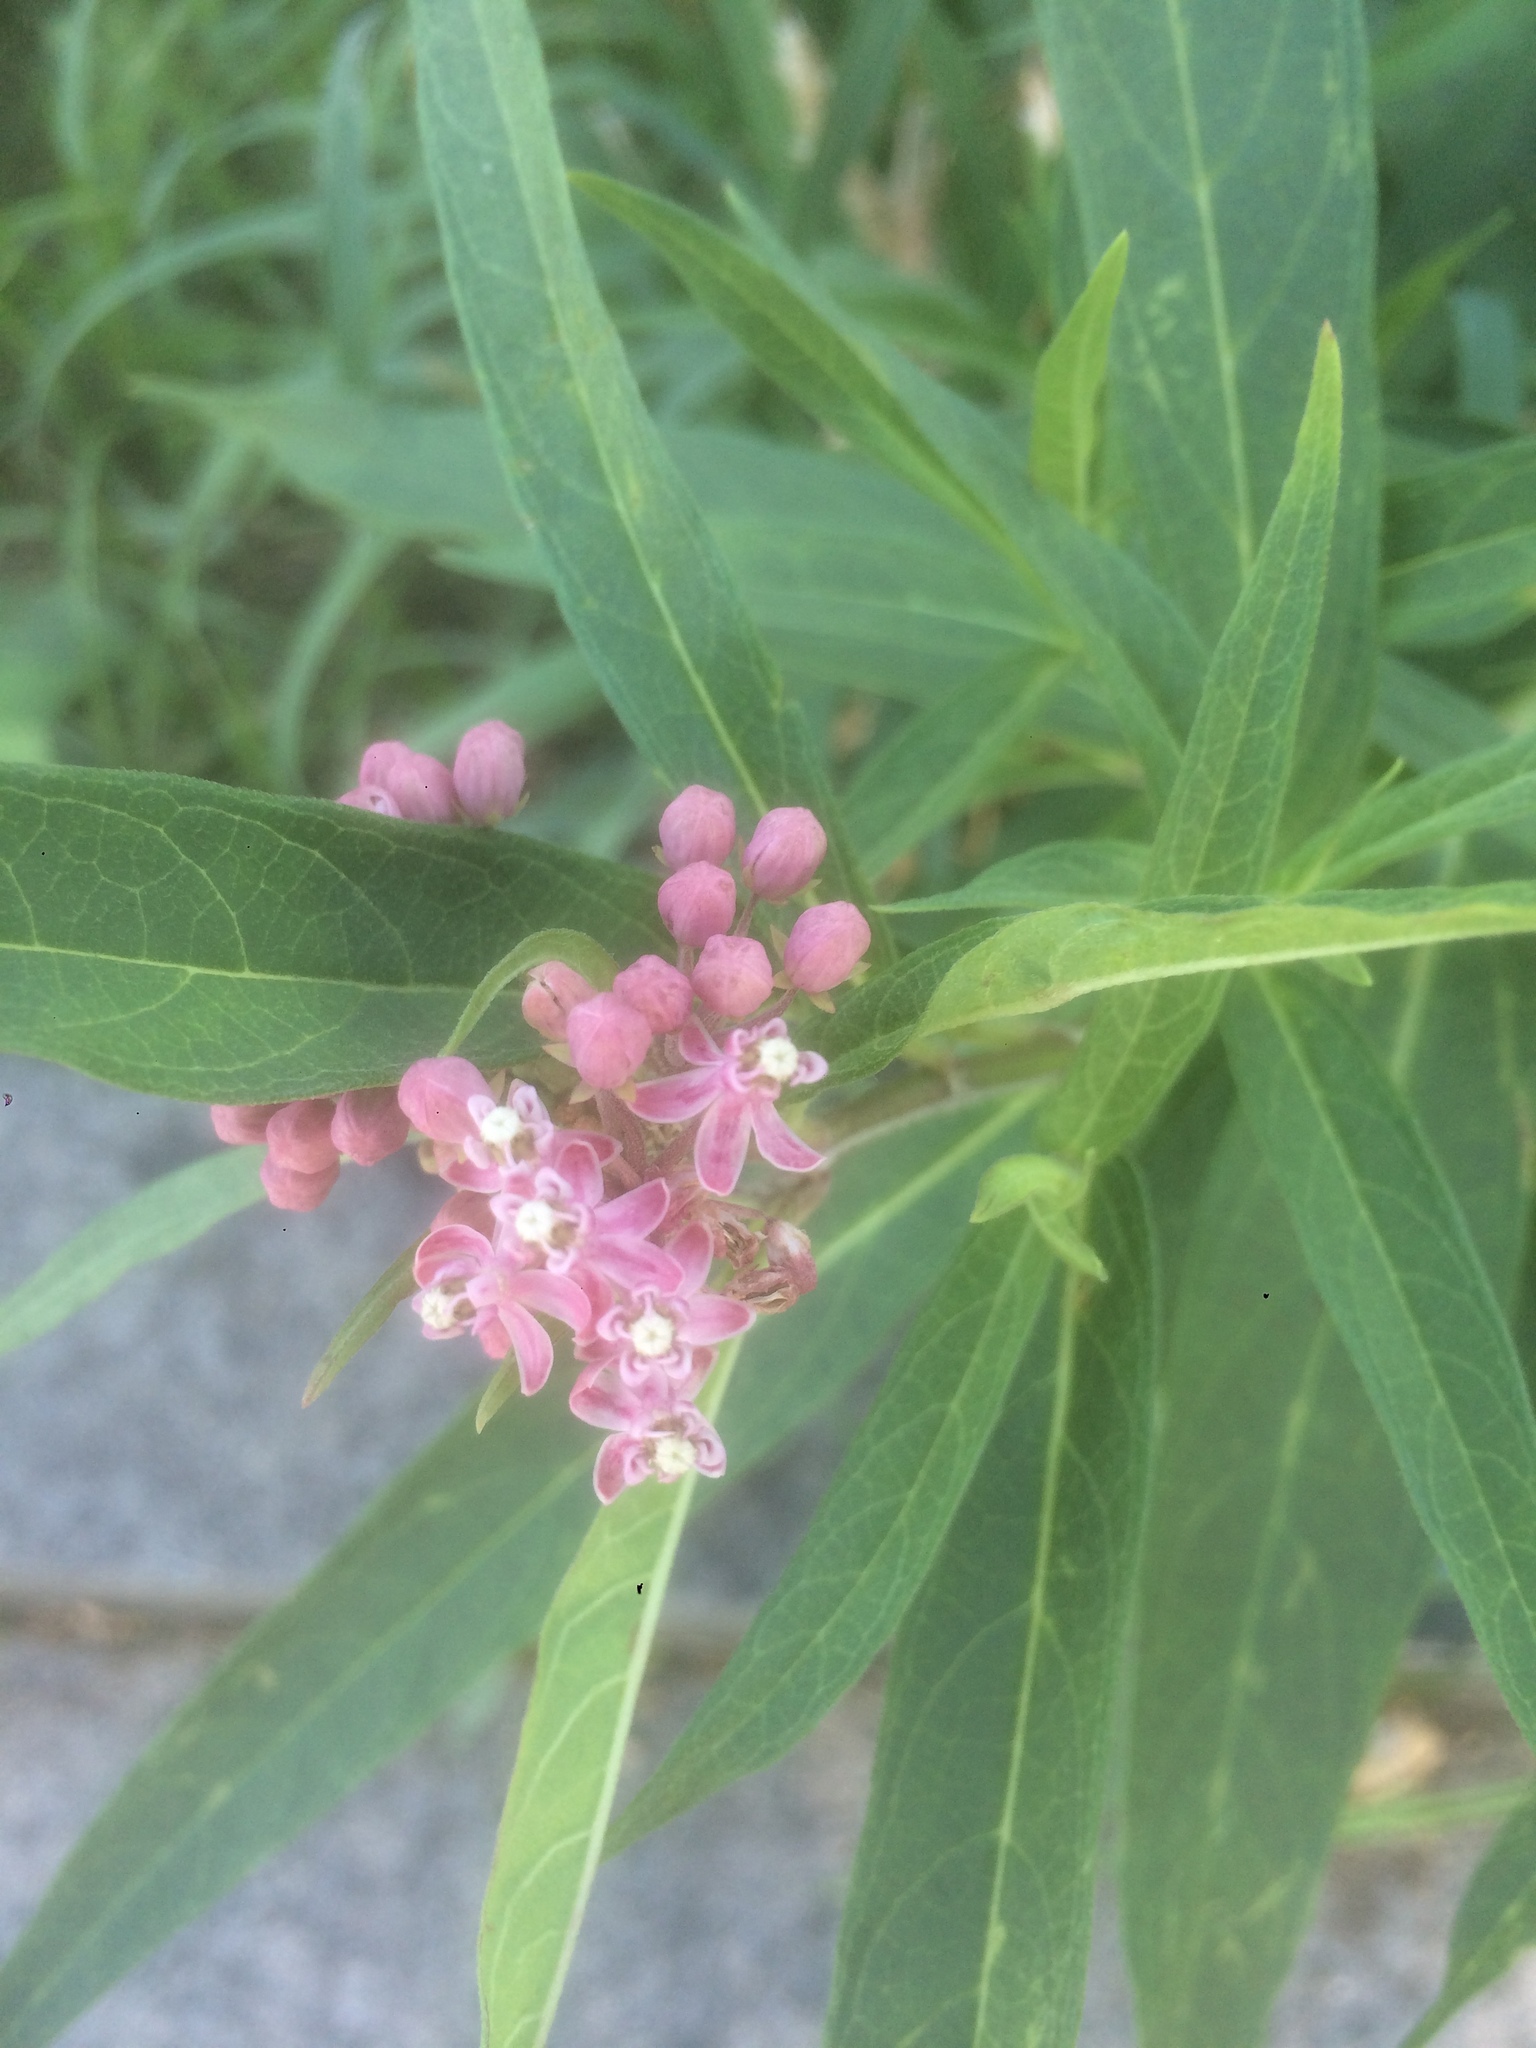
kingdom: Plantae
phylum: Tracheophyta
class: Magnoliopsida
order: Gentianales
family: Apocynaceae
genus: Asclepias
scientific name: Asclepias incarnata
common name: Swamp milkweed
